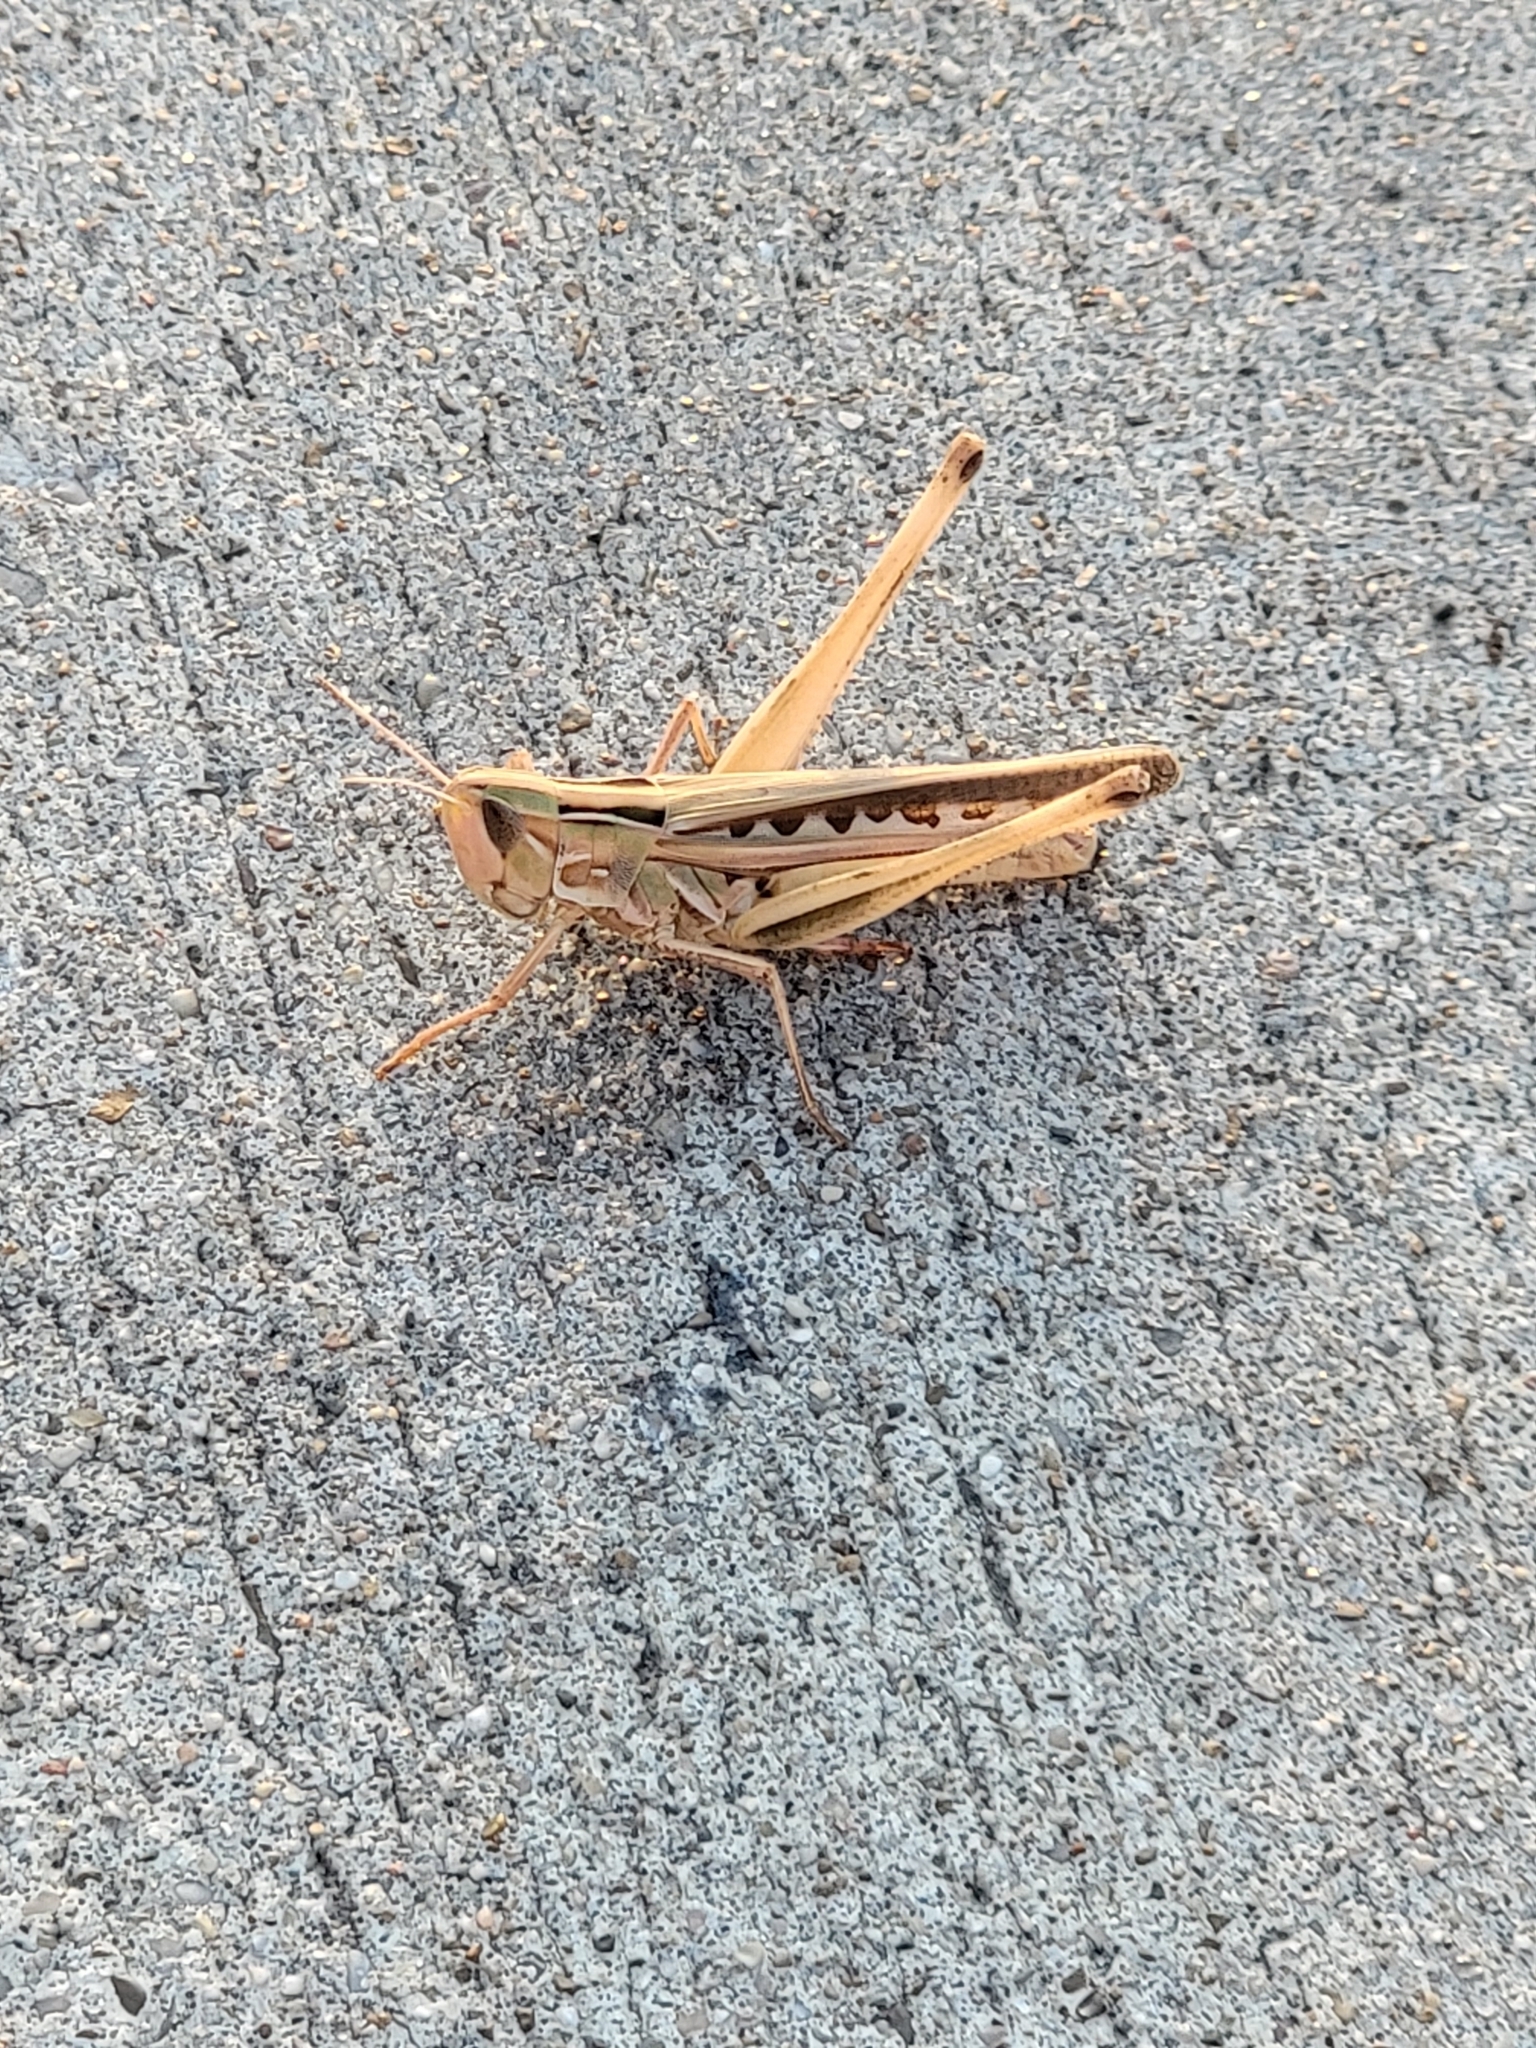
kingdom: Animalia
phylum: Arthropoda
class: Insecta
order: Orthoptera
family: Acrididae
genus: Syrbula
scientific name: Syrbula admirabilis
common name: Handsome grasshopper
